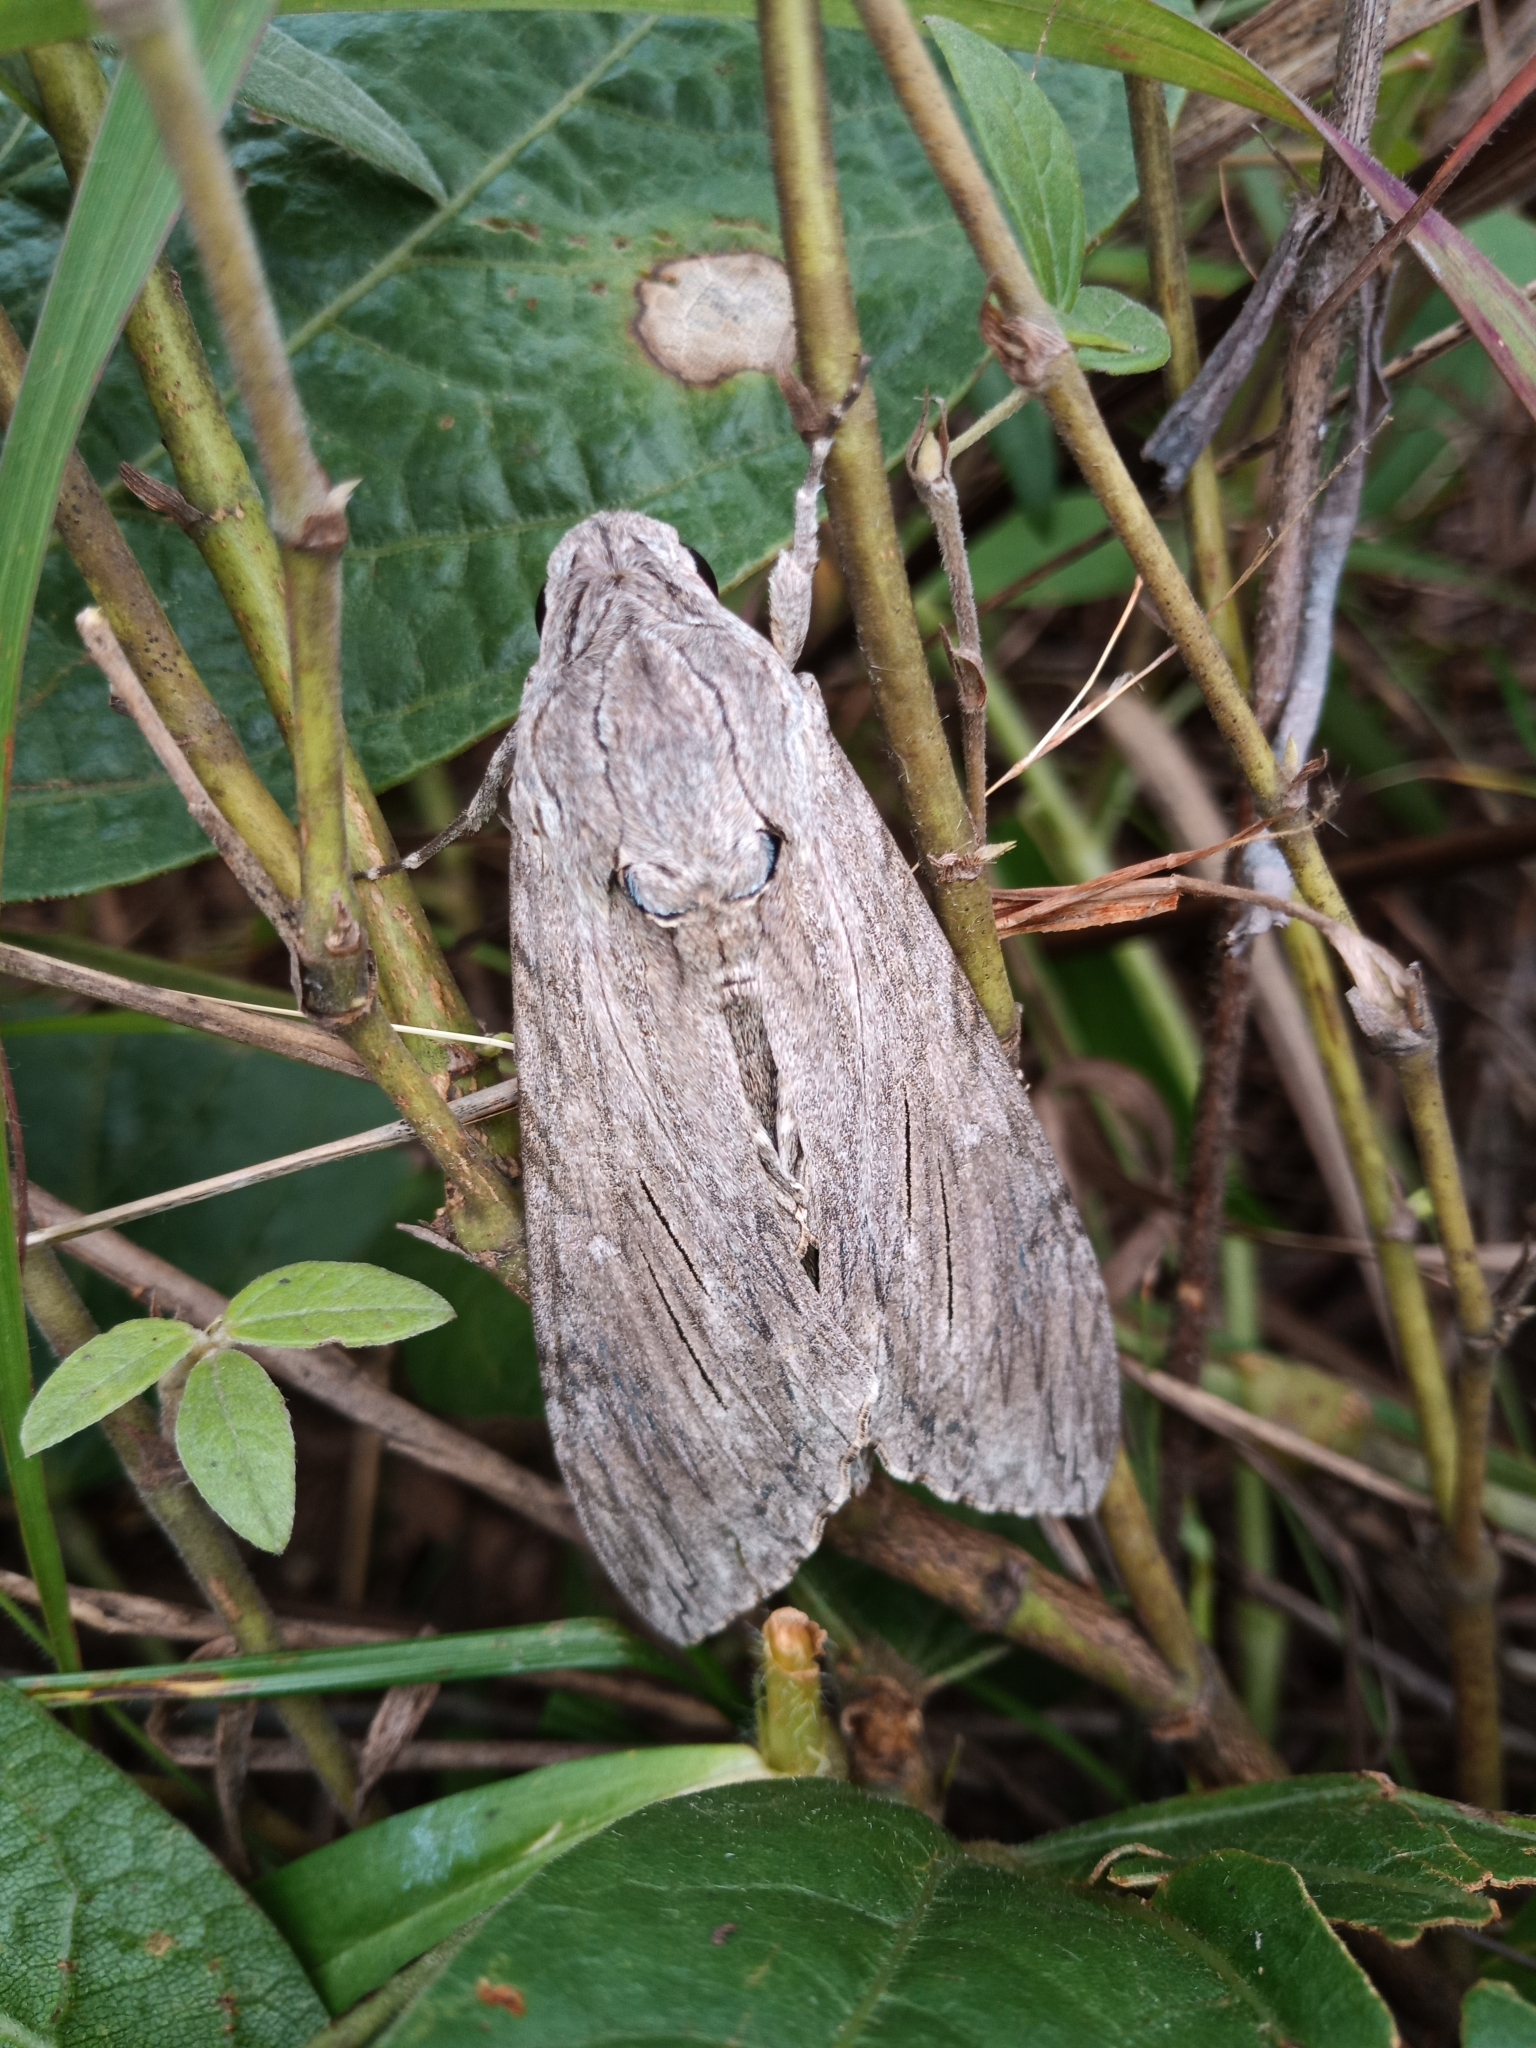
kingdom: Animalia
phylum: Arthropoda
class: Insecta
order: Lepidoptera
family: Sphingidae
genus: Agrius
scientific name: Agrius convolvuli
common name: Convolvulus hawkmoth
